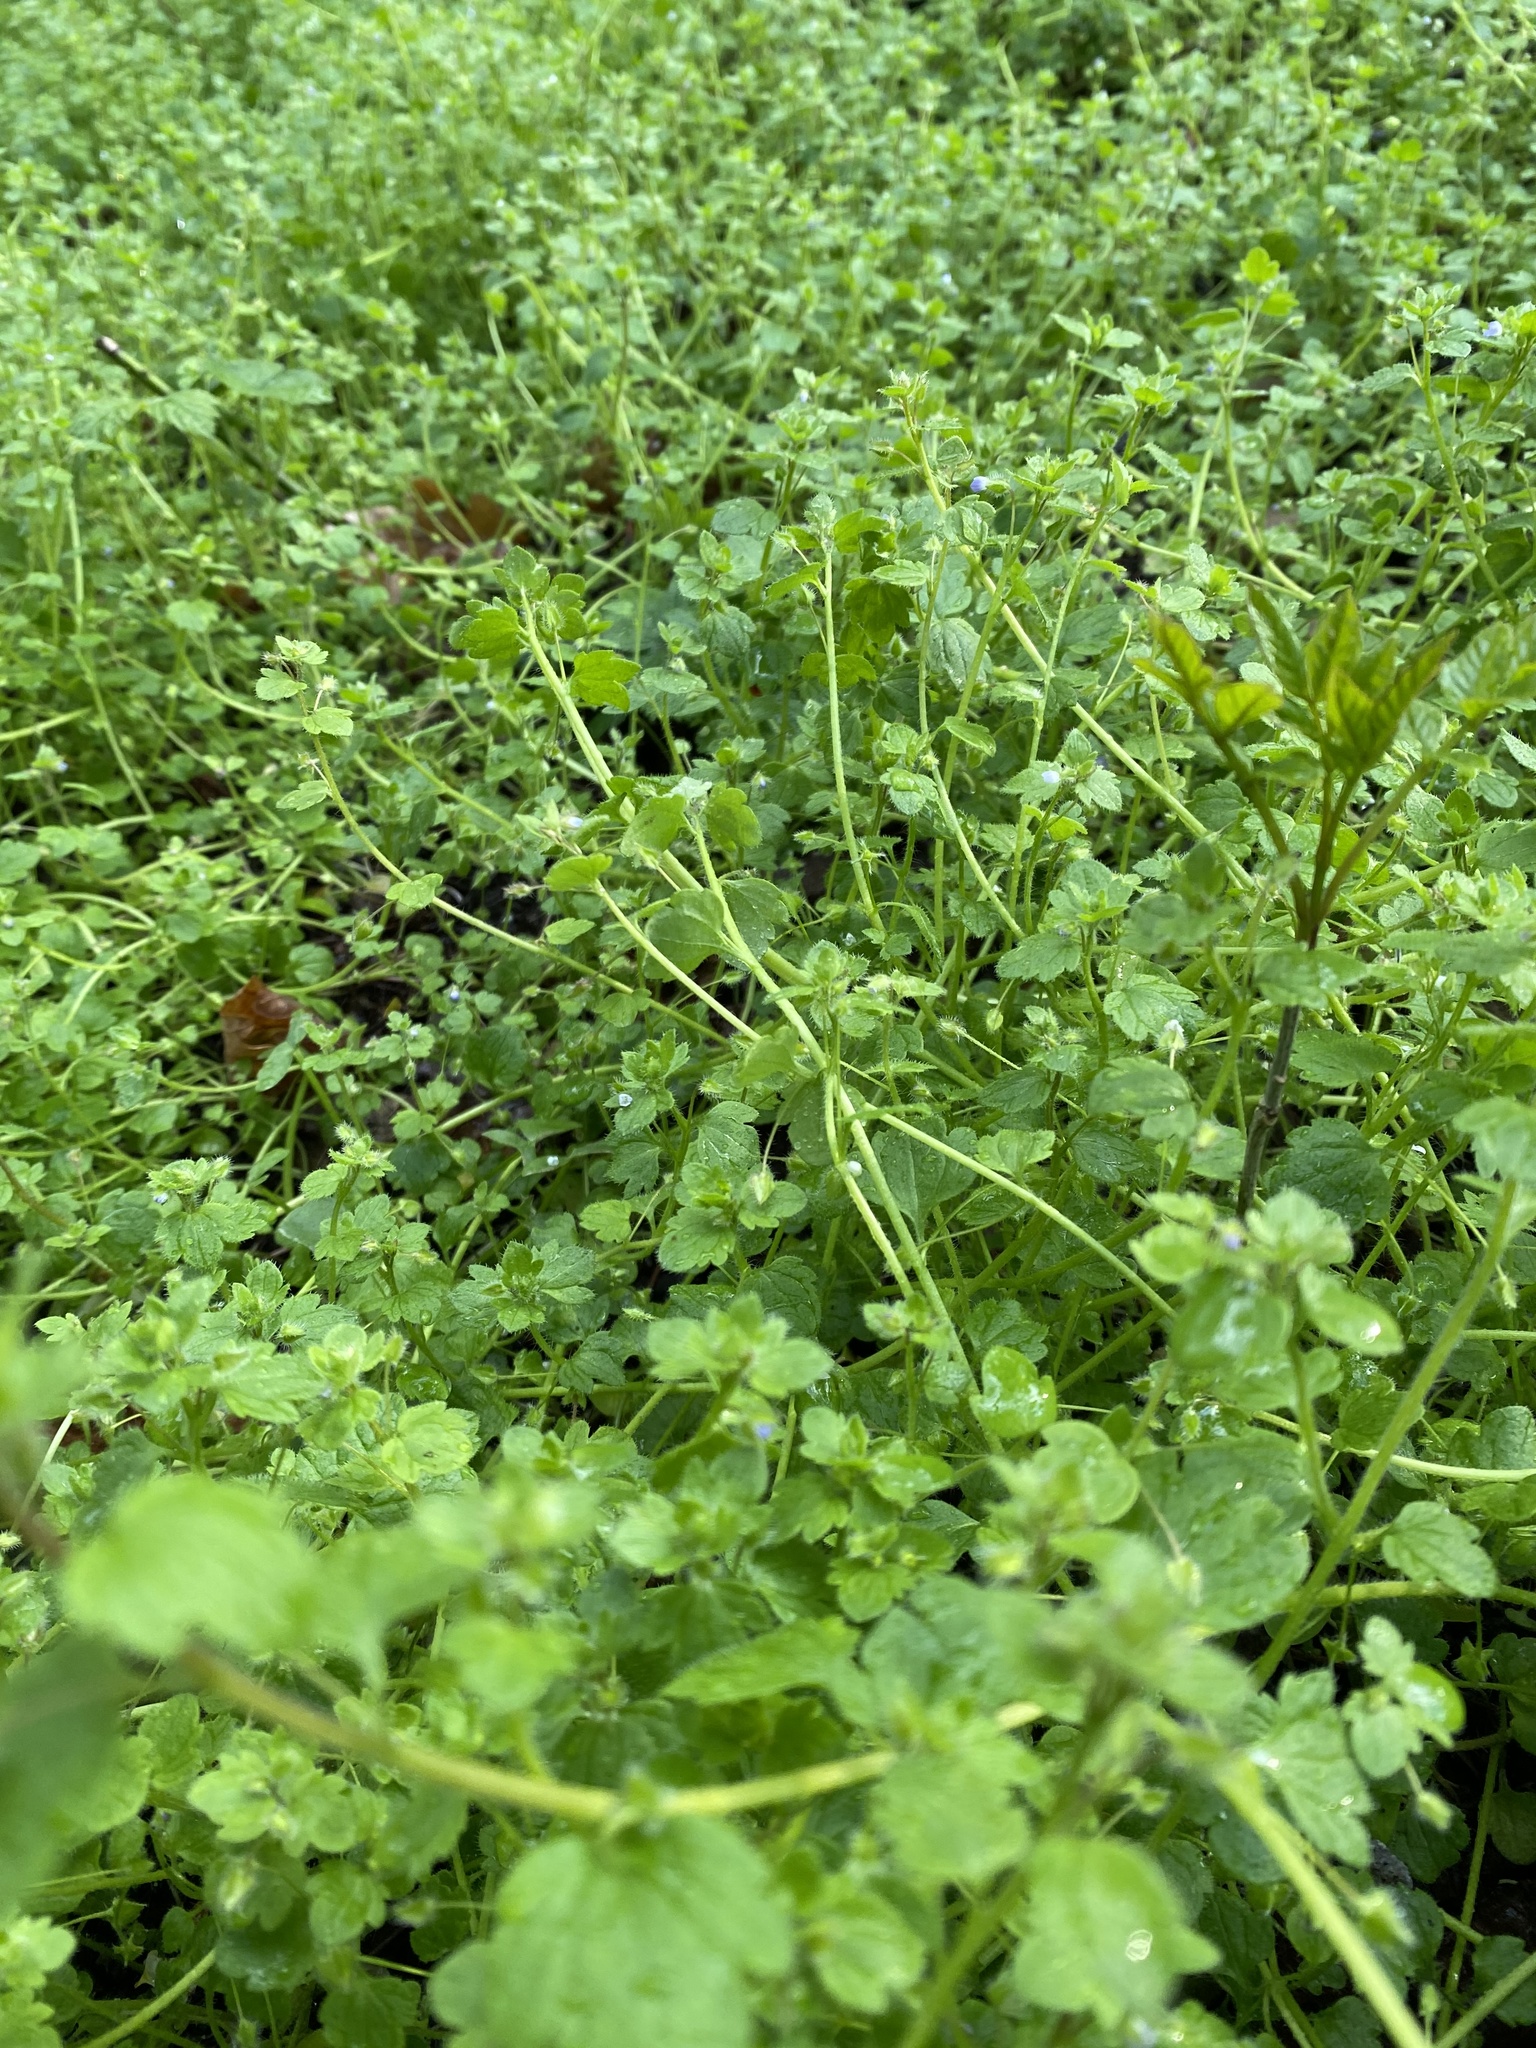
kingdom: Plantae
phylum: Tracheophyta
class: Magnoliopsida
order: Lamiales
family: Plantaginaceae
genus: Veronica
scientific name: Veronica hederifolia
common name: Ivy-leaved speedwell
